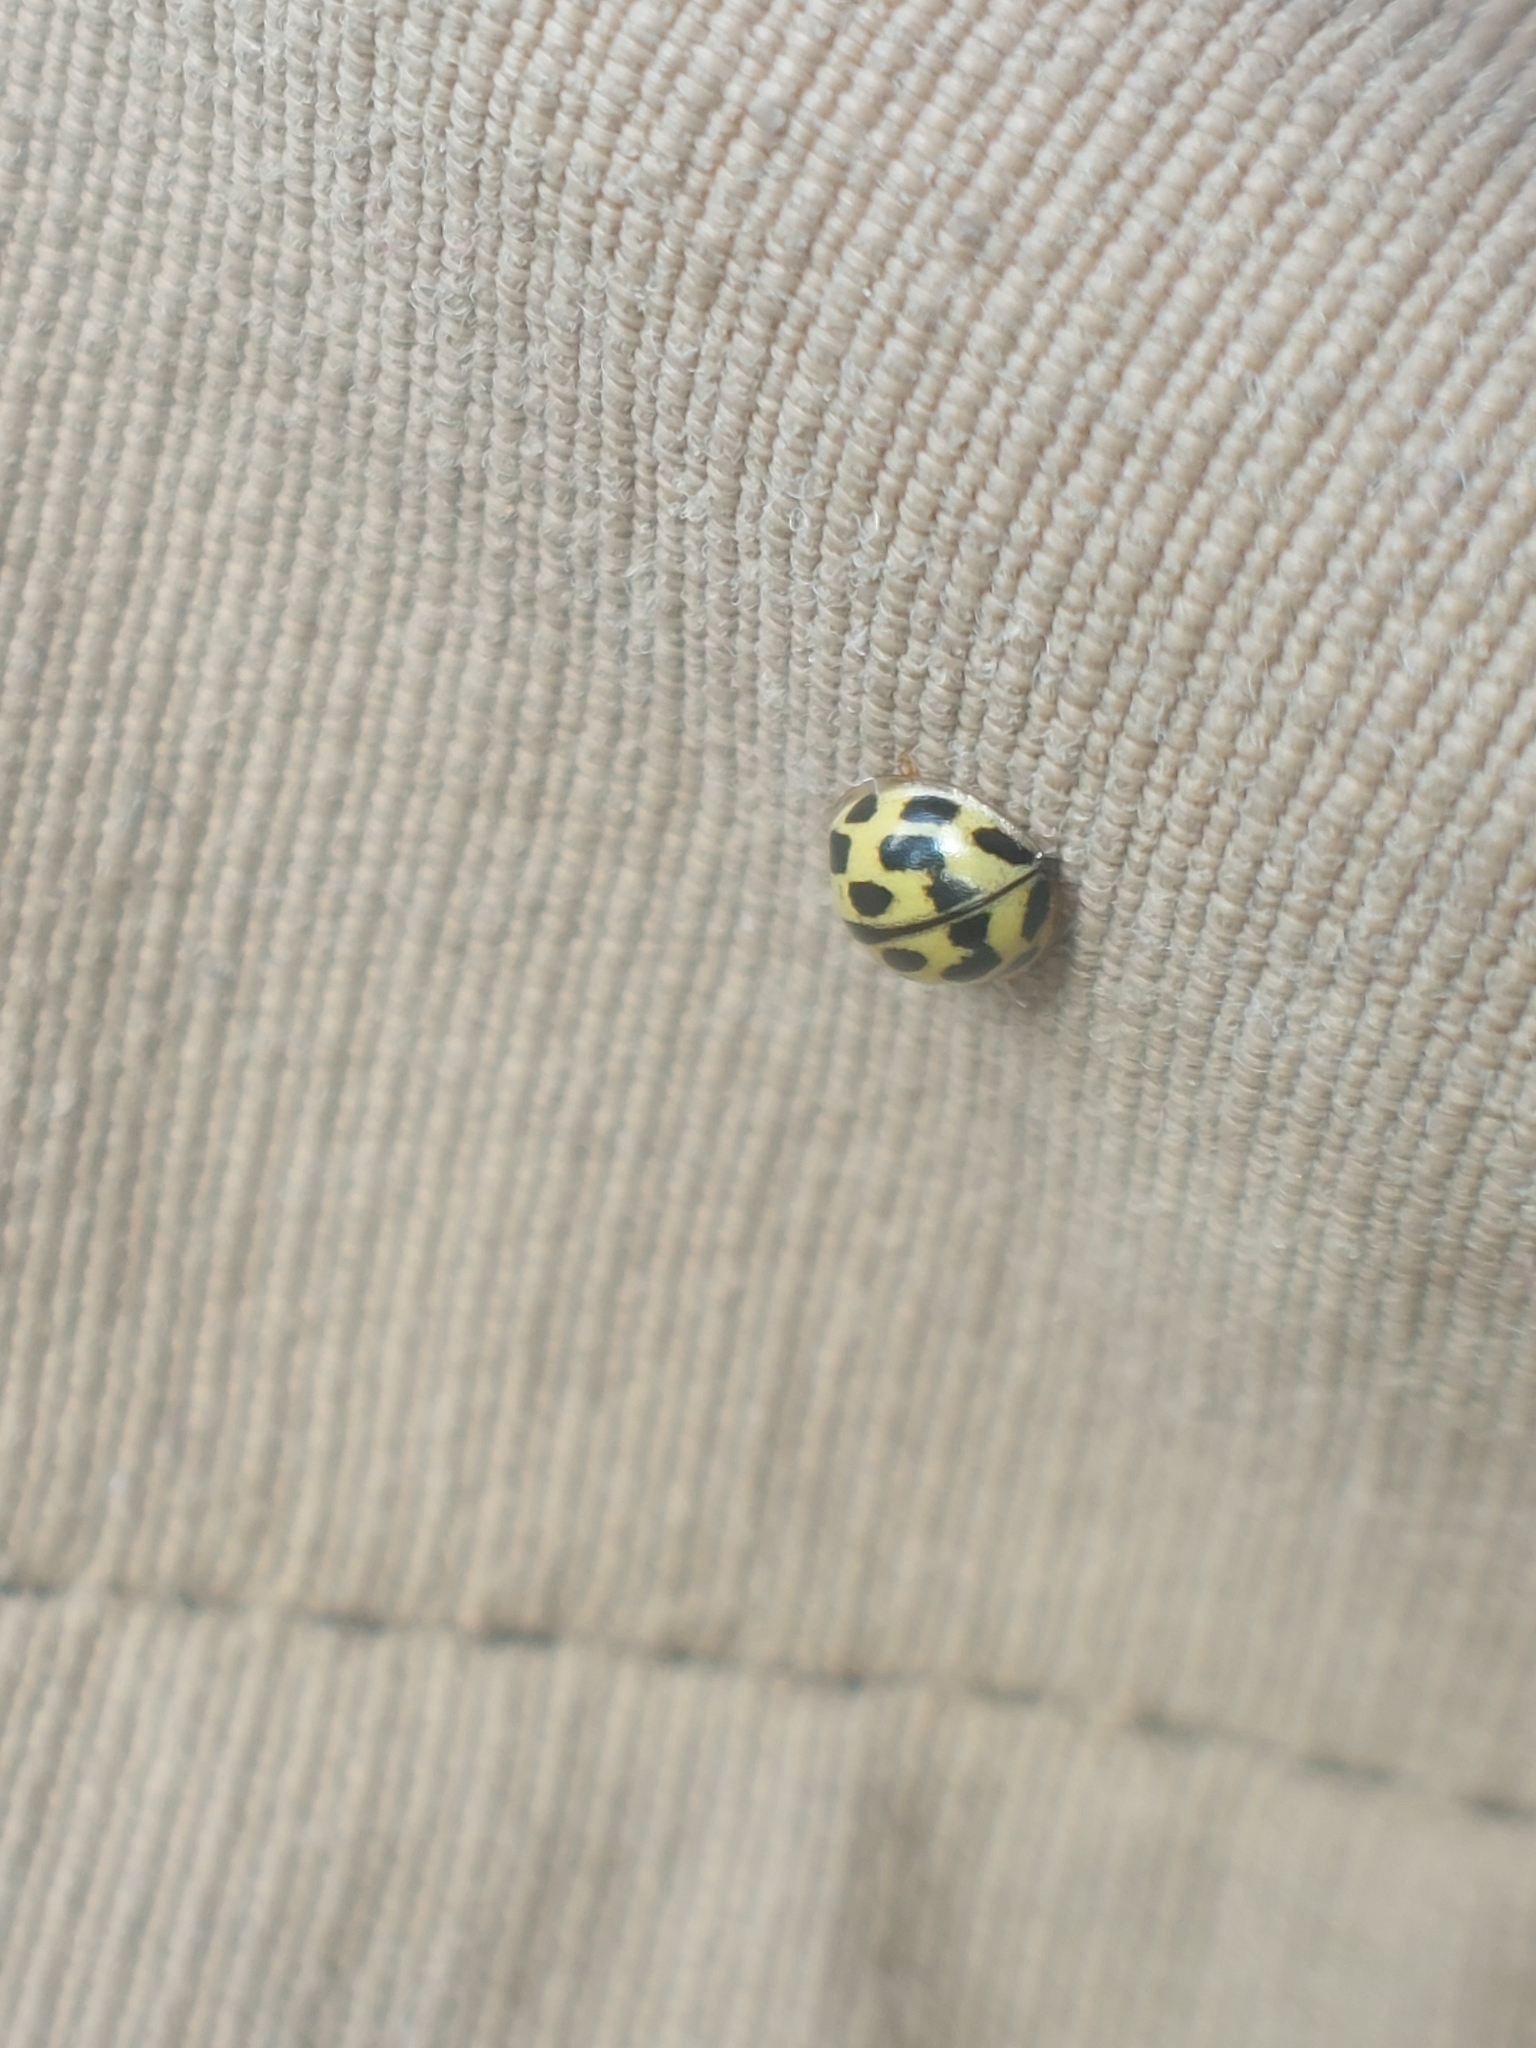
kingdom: Animalia
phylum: Arthropoda
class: Insecta
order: Coleoptera
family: Coccinellidae
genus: Propylaea
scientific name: Propylaea quatuordecimpunctata
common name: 14-spotted ladybird beetle
